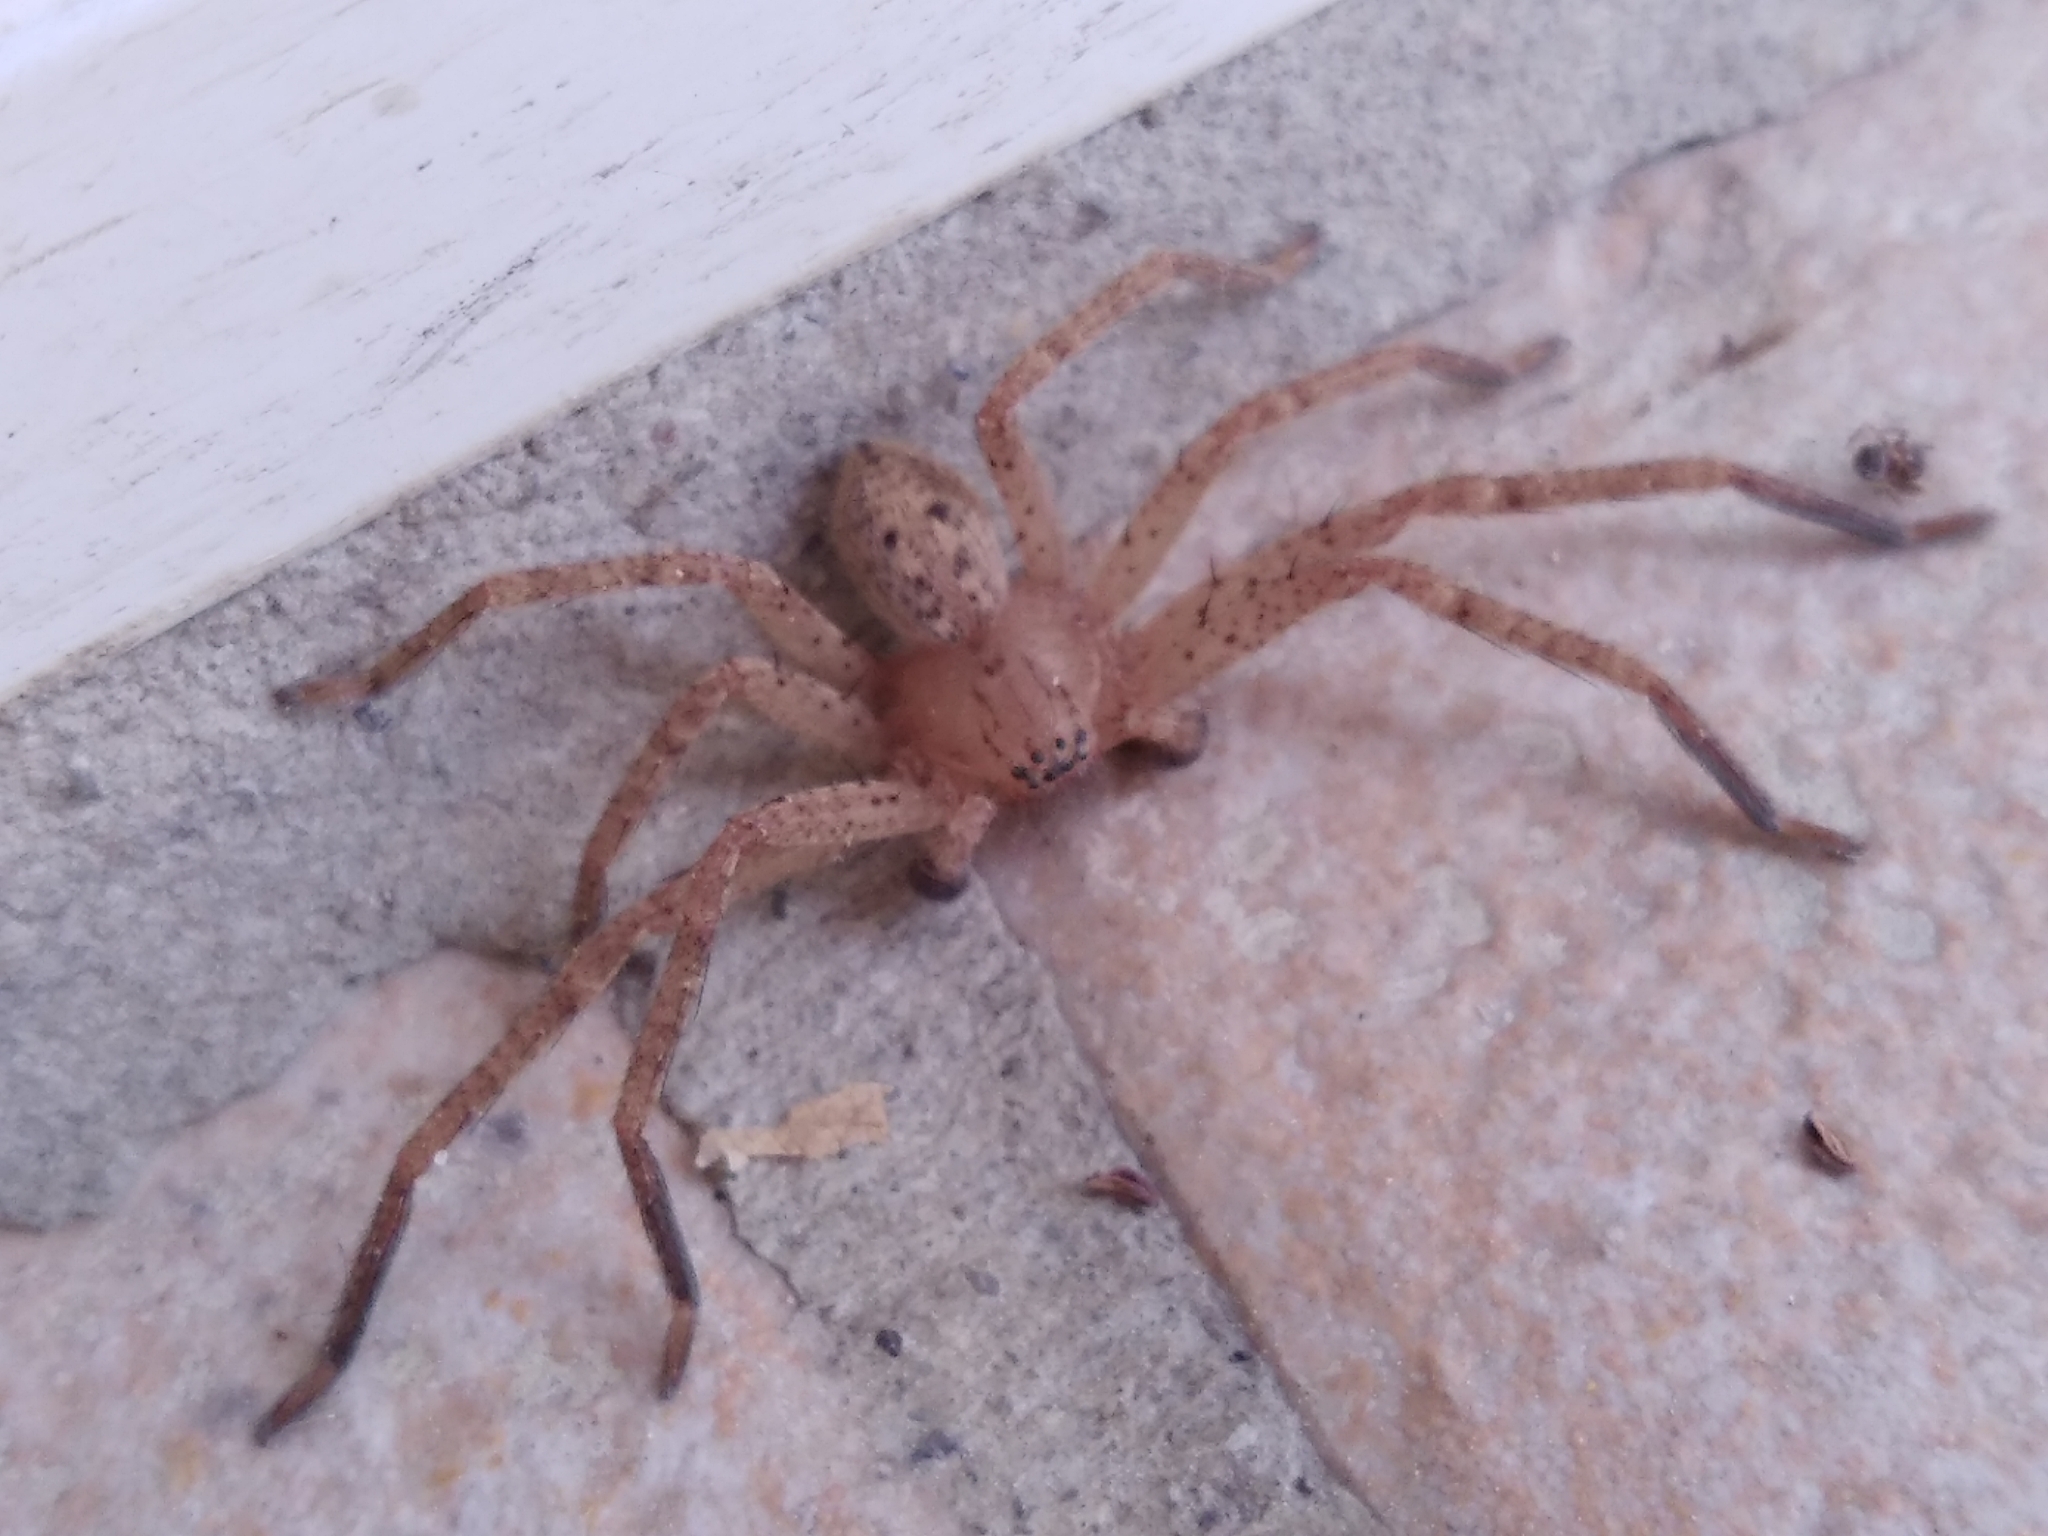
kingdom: Animalia
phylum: Arthropoda
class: Arachnida
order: Araneae
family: Sparassidae
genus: Olios
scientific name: Olios argelasius
